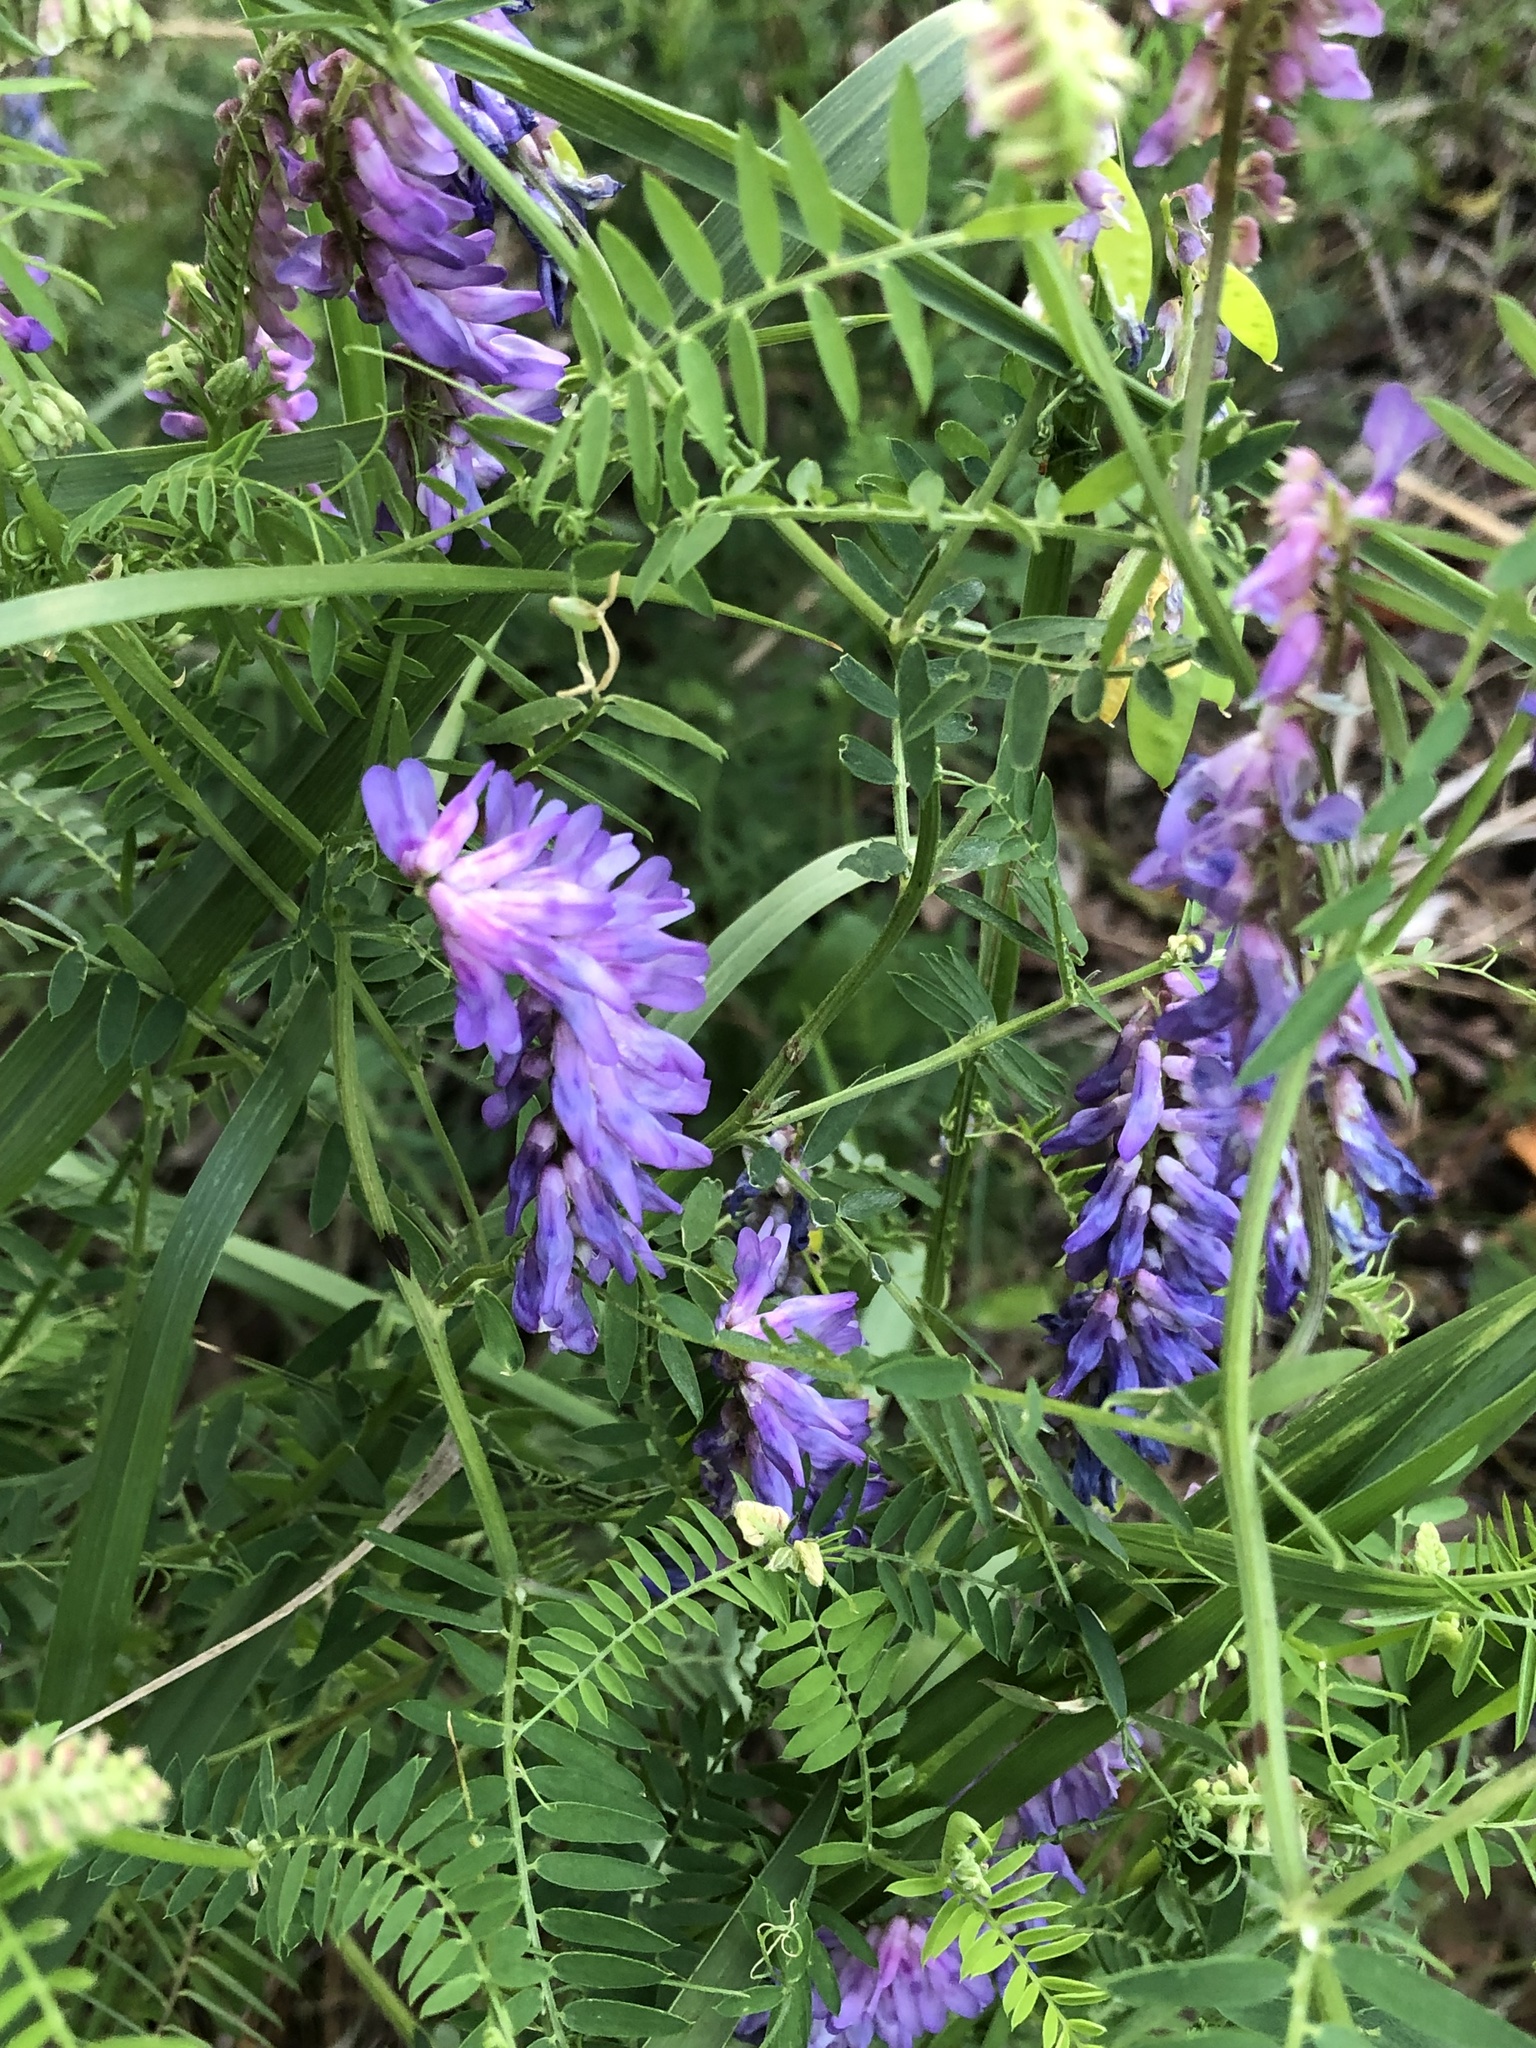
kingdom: Plantae
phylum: Tracheophyta
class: Magnoliopsida
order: Fabales
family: Fabaceae
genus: Vicia
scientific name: Vicia cracca
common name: Bird vetch
